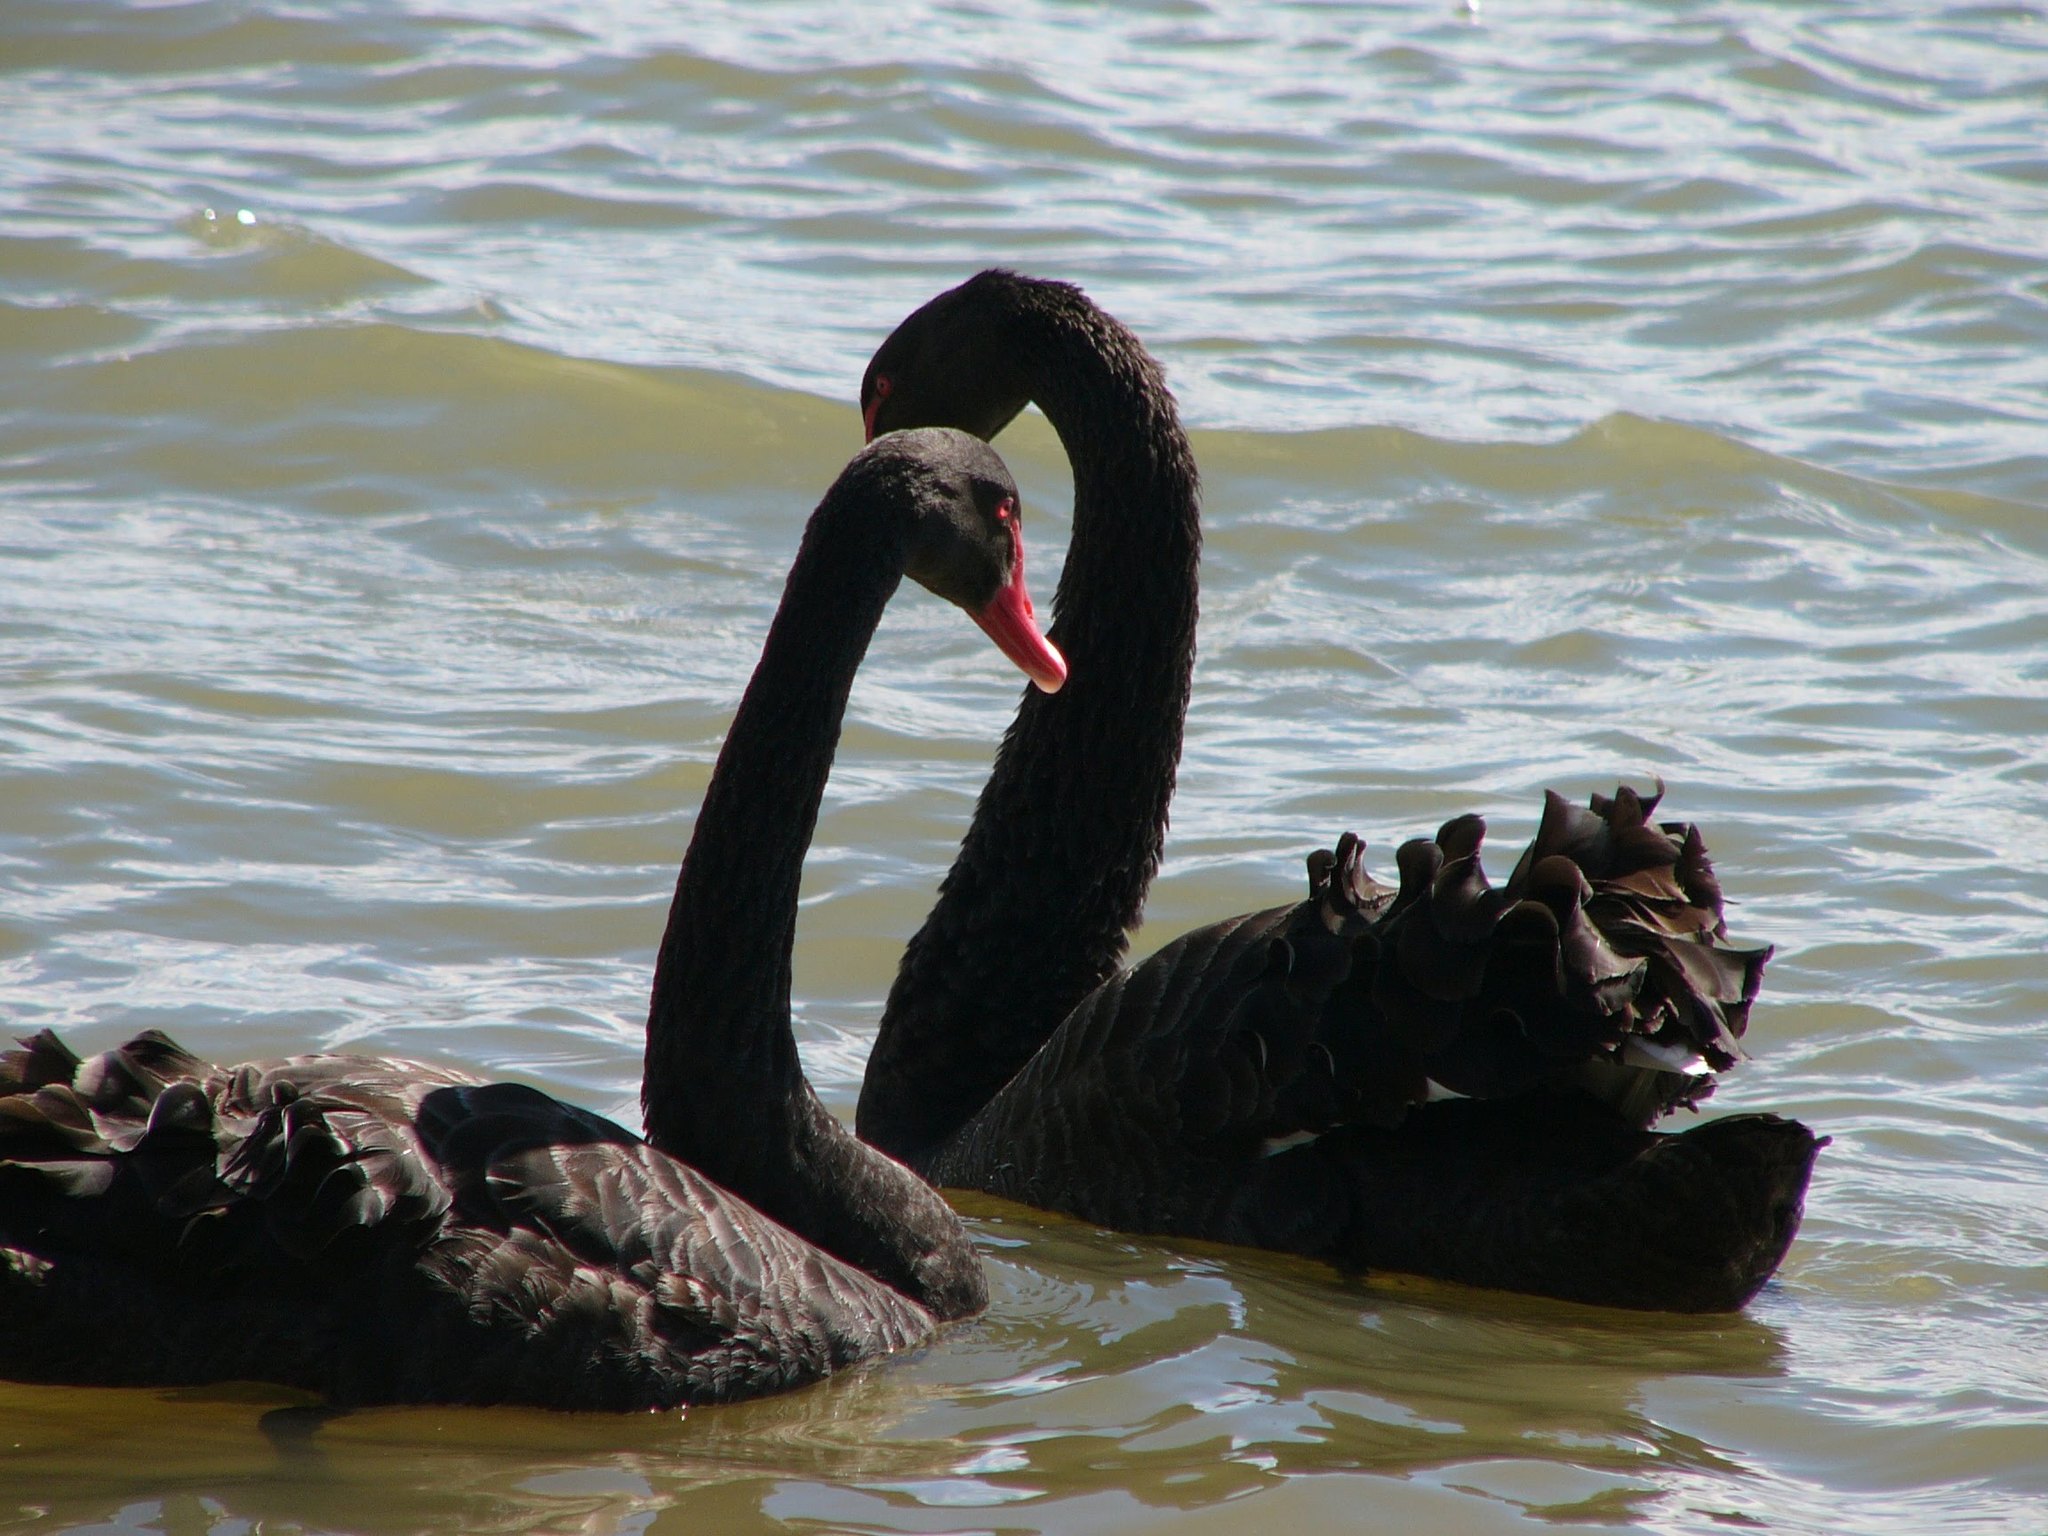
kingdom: Animalia
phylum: Chordata
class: Aves
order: Anseriformes
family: Anatidae
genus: Cygnus
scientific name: Cygnus atratus
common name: Black swan
